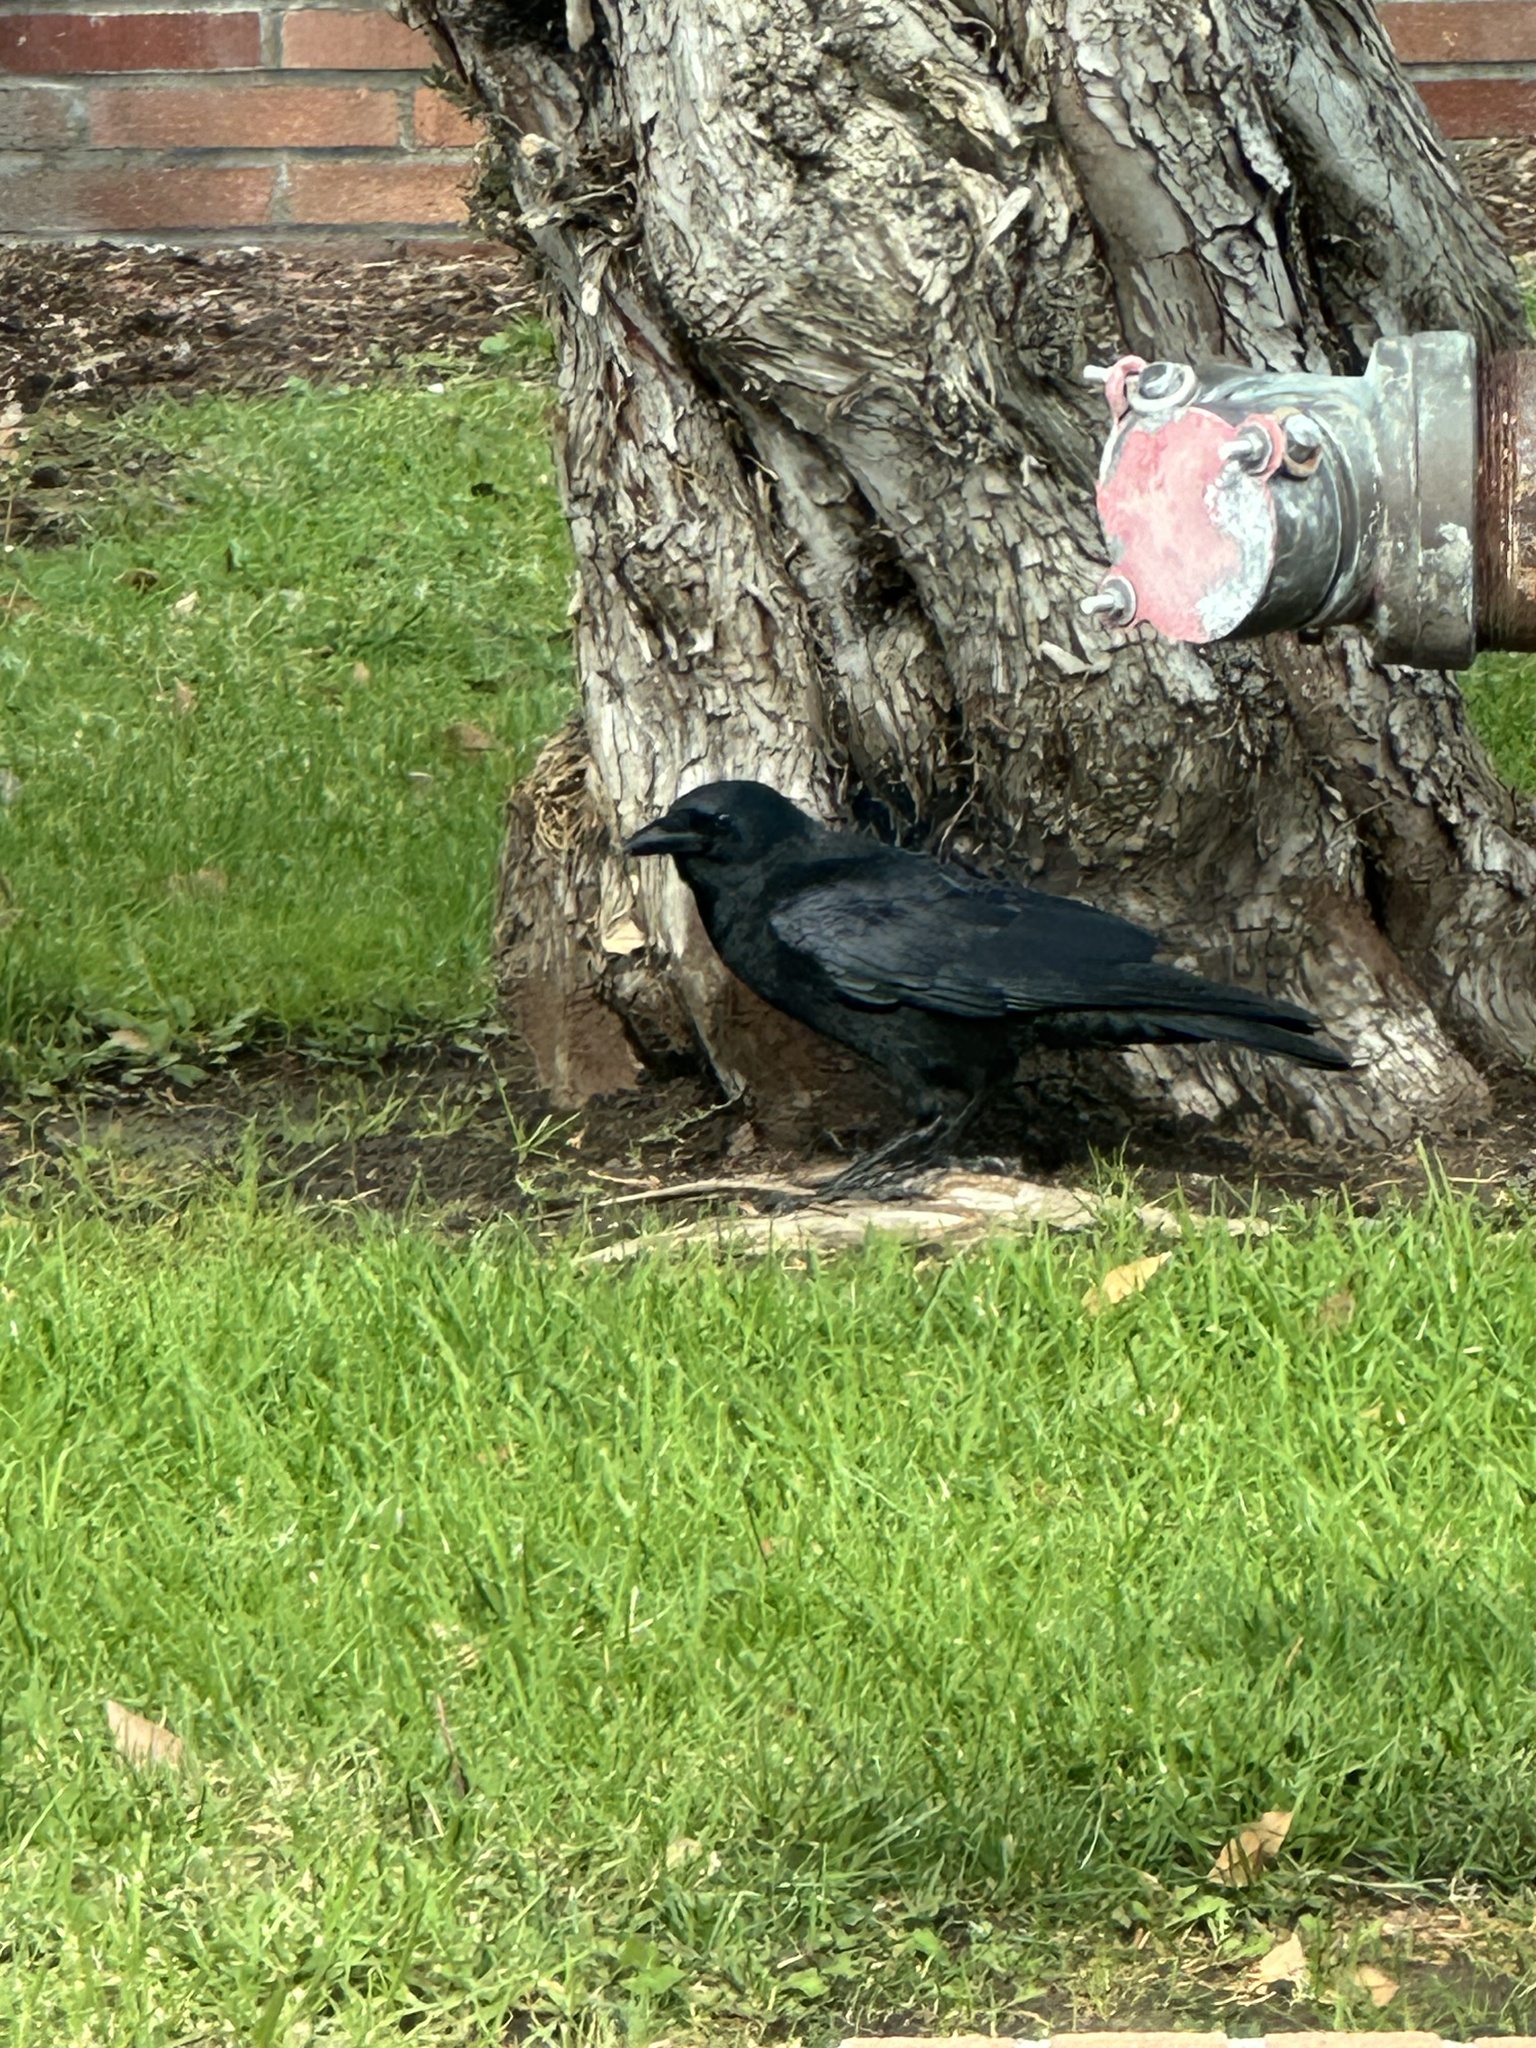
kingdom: Animalia
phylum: Chordata
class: Aves
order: Passeriformes
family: Corvidae
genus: Corvus
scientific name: Corvus brachyrhynchos
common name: American crow
